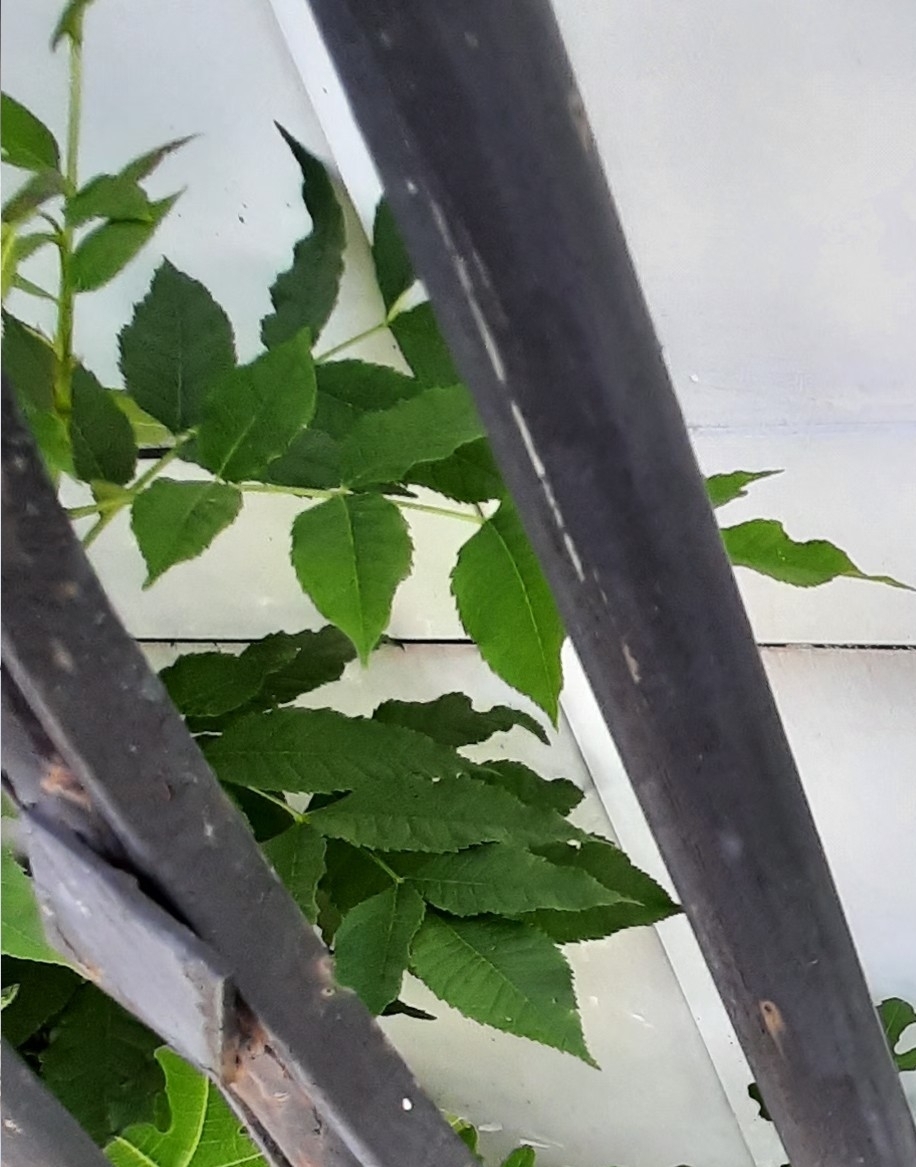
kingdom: Plantae
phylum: Tracheophyta
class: Magnoliopsida
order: Lamiales
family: Oleaceae
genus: Fraxinus
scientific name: Fraxinus excelsior
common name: European ash
